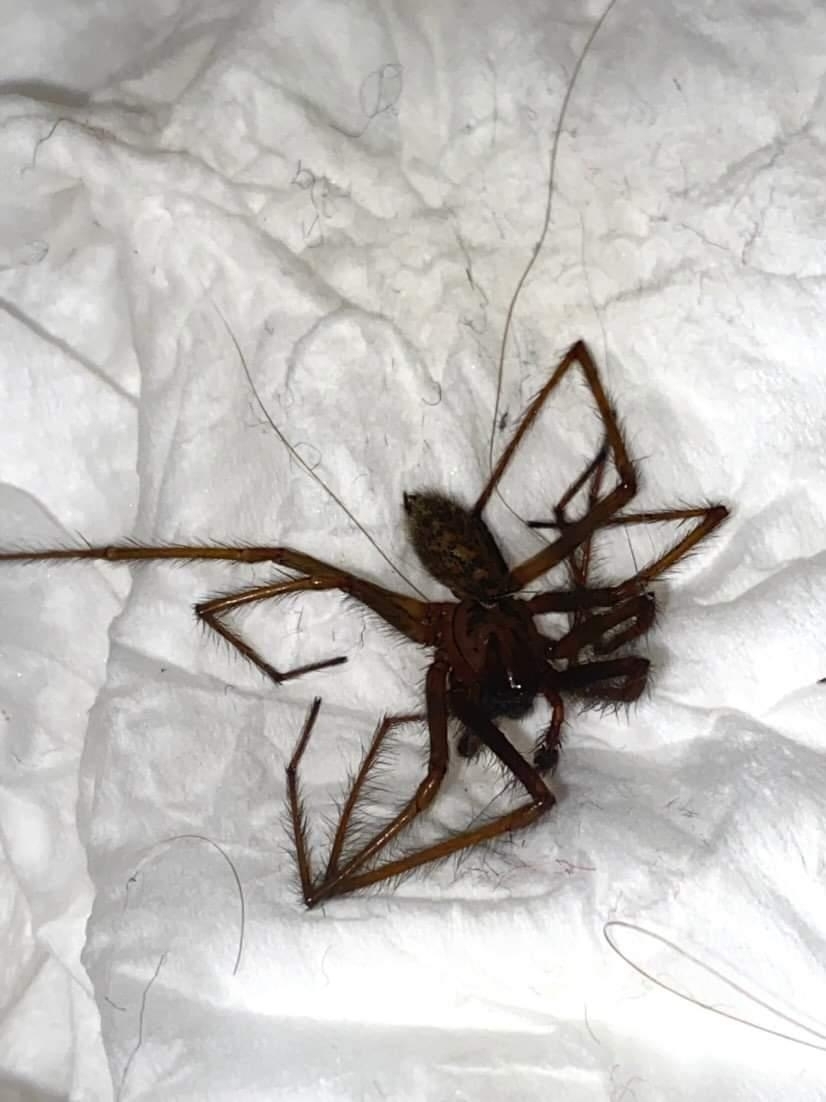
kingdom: Animalia
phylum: Arthropoda
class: Arachnida
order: Araneae
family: Agelenidae
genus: Eratigena
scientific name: Eratigena duellica
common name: Giant house spider
